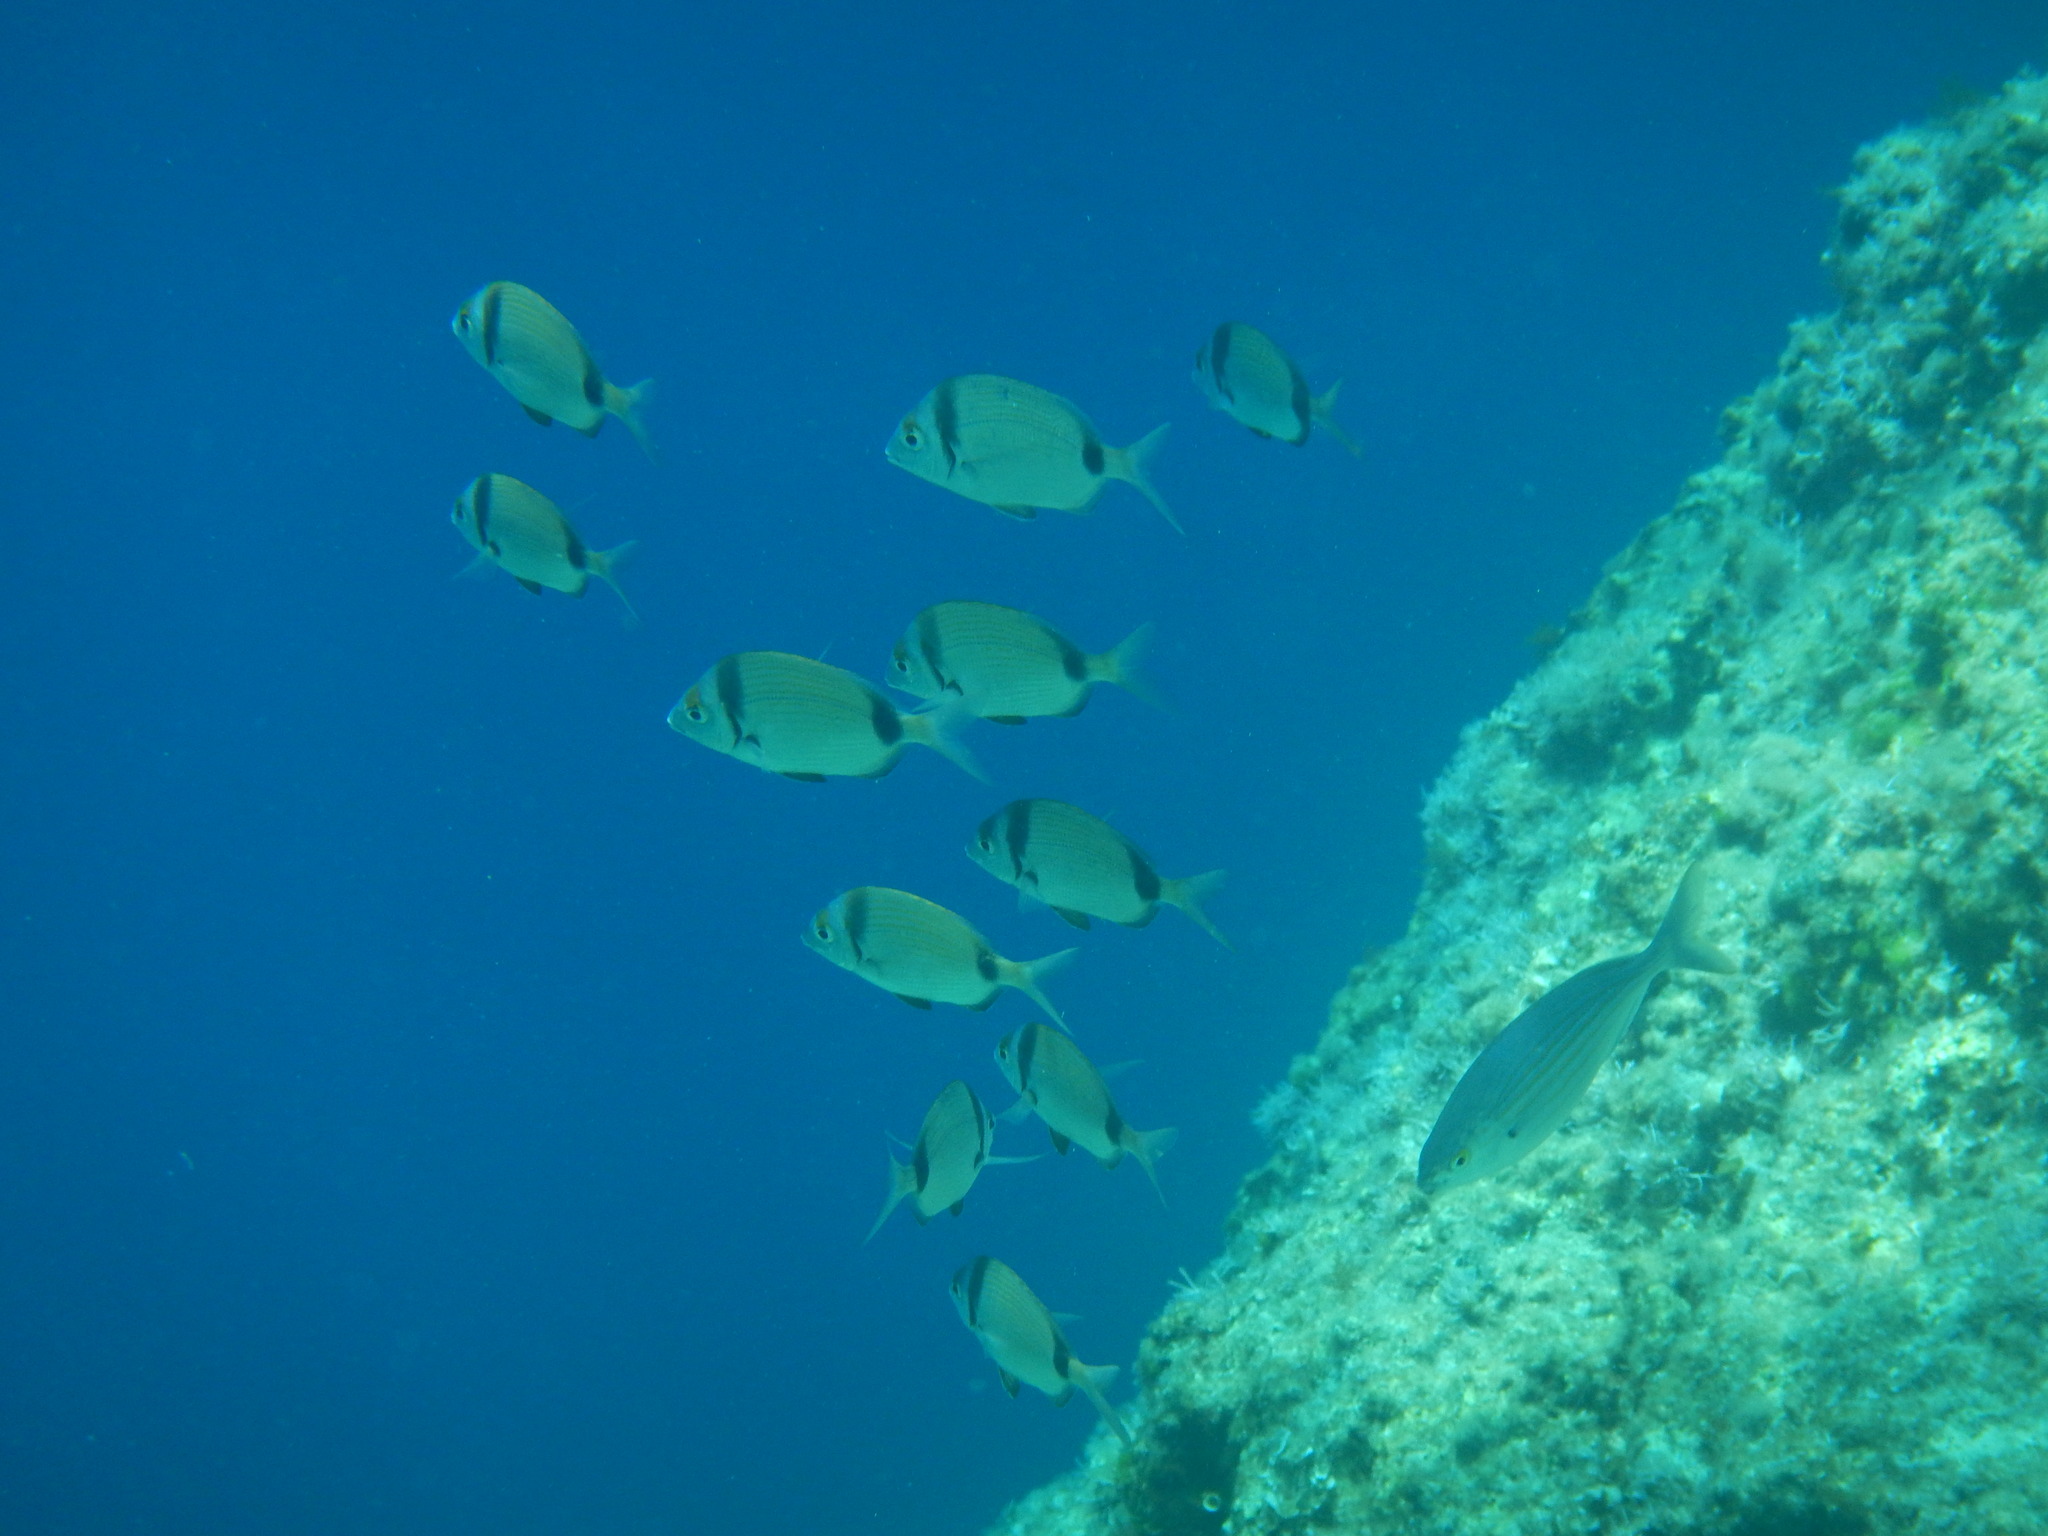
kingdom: Animalia
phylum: Chordata
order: Perciformes
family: Sparidae
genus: Diplodus
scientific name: Diplodus vulgaris
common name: Common two-banded seabream
